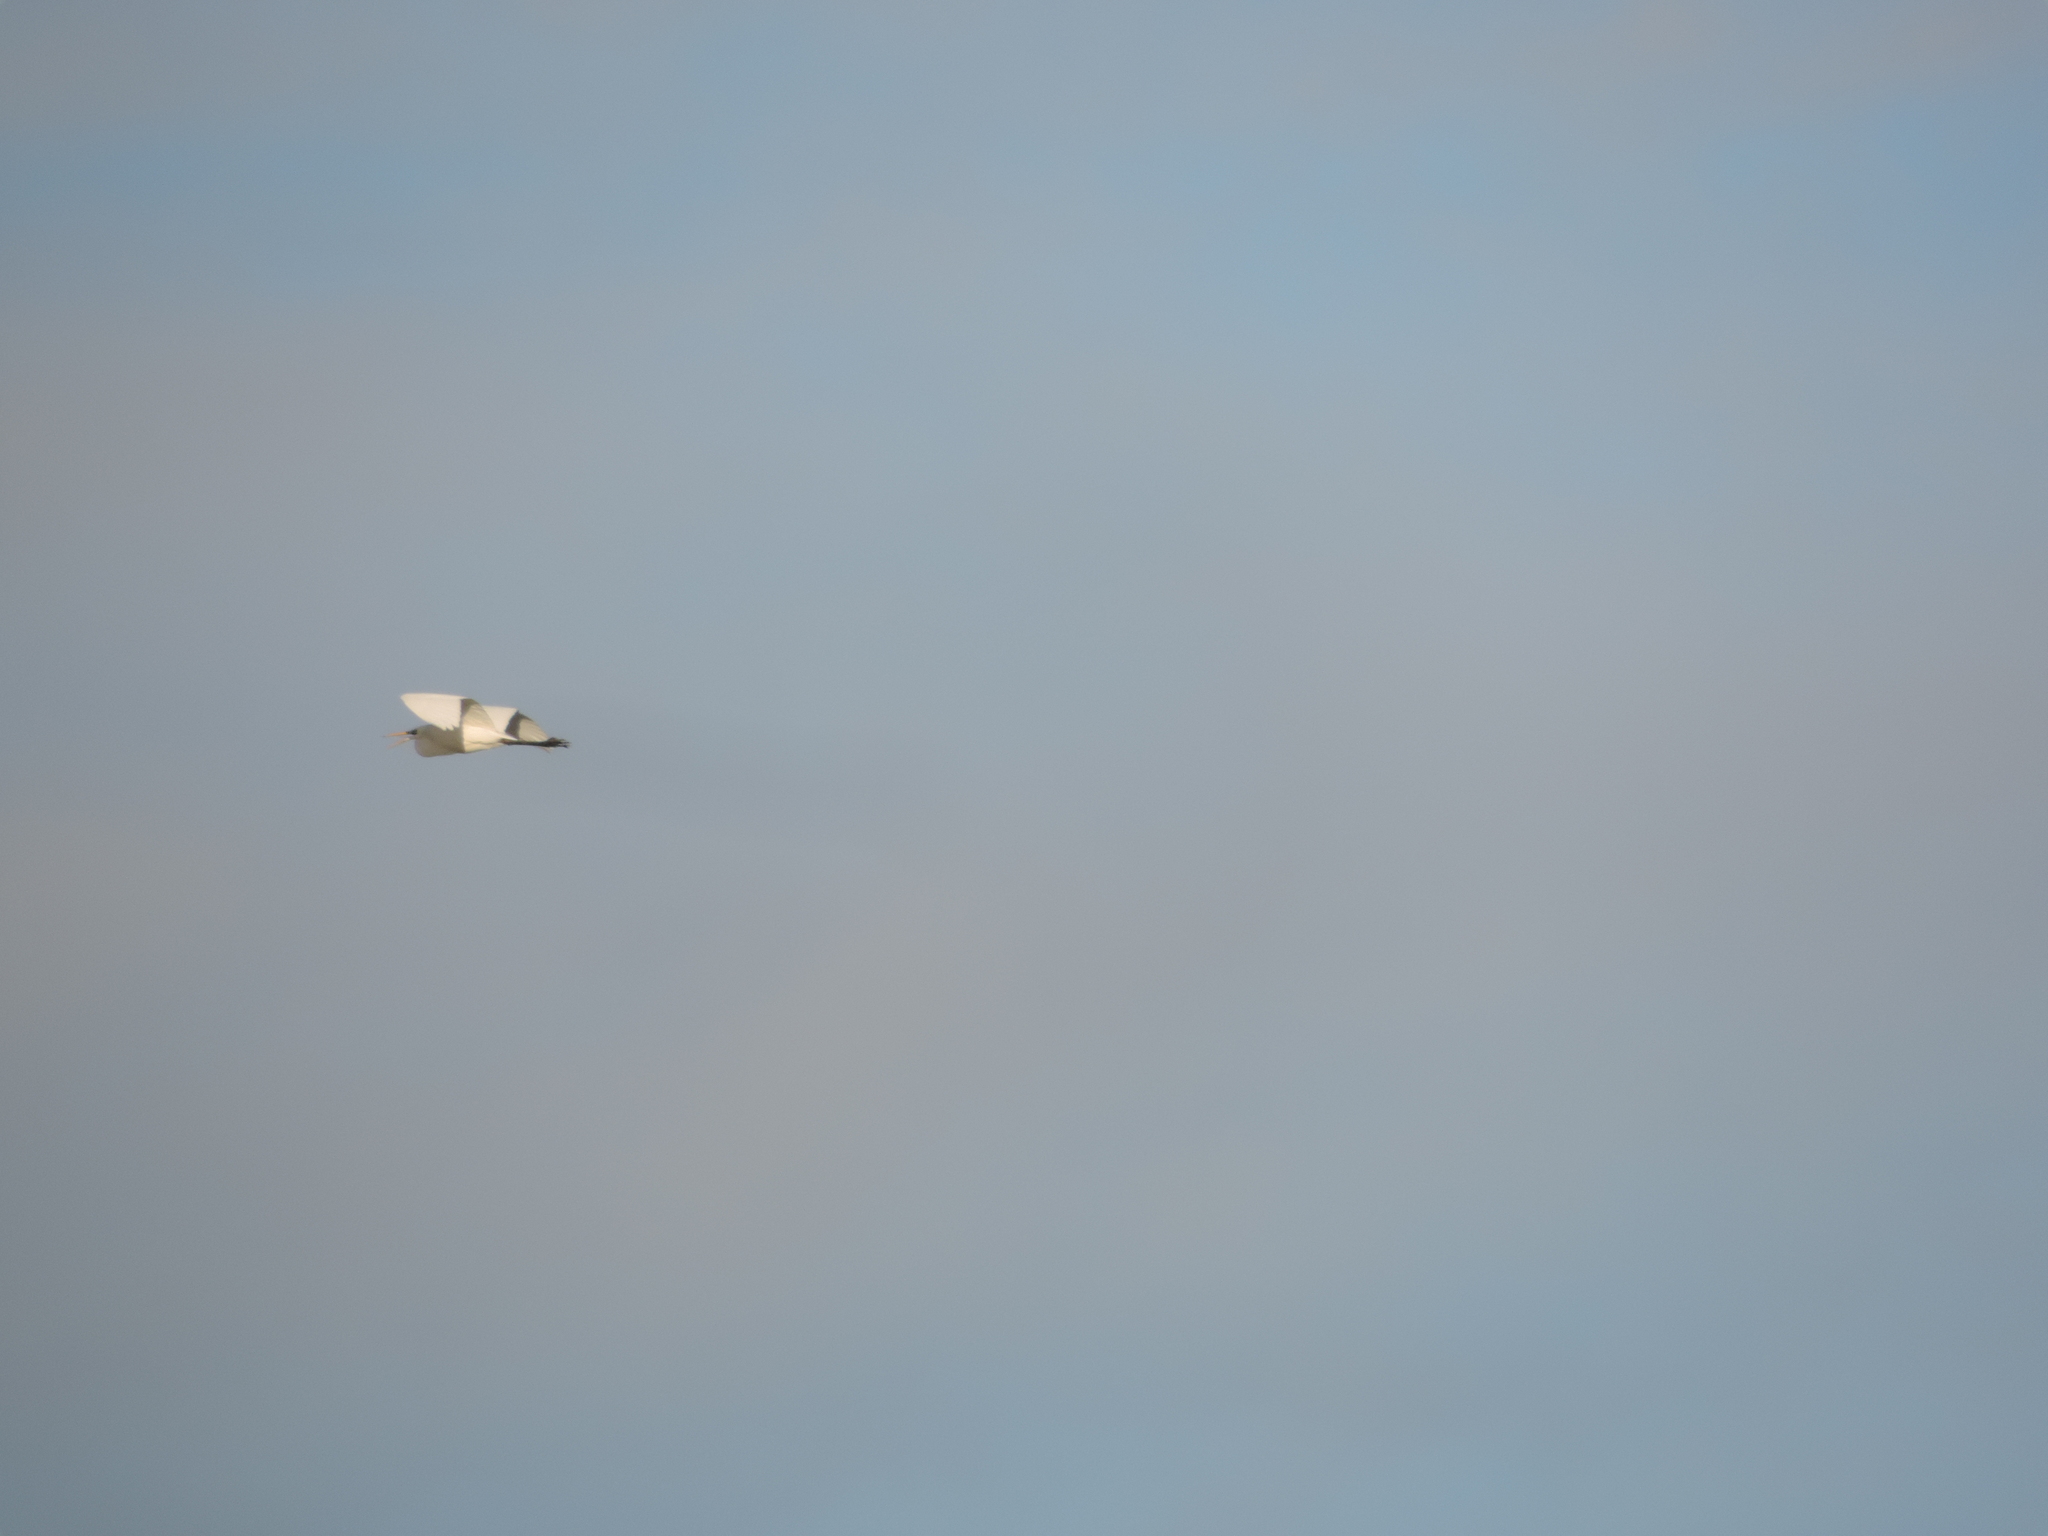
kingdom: Animalia
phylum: Chordata
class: Aves
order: Pelecaniformes
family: Ardeidae
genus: Ardea
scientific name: Ardea alba
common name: Great egret
